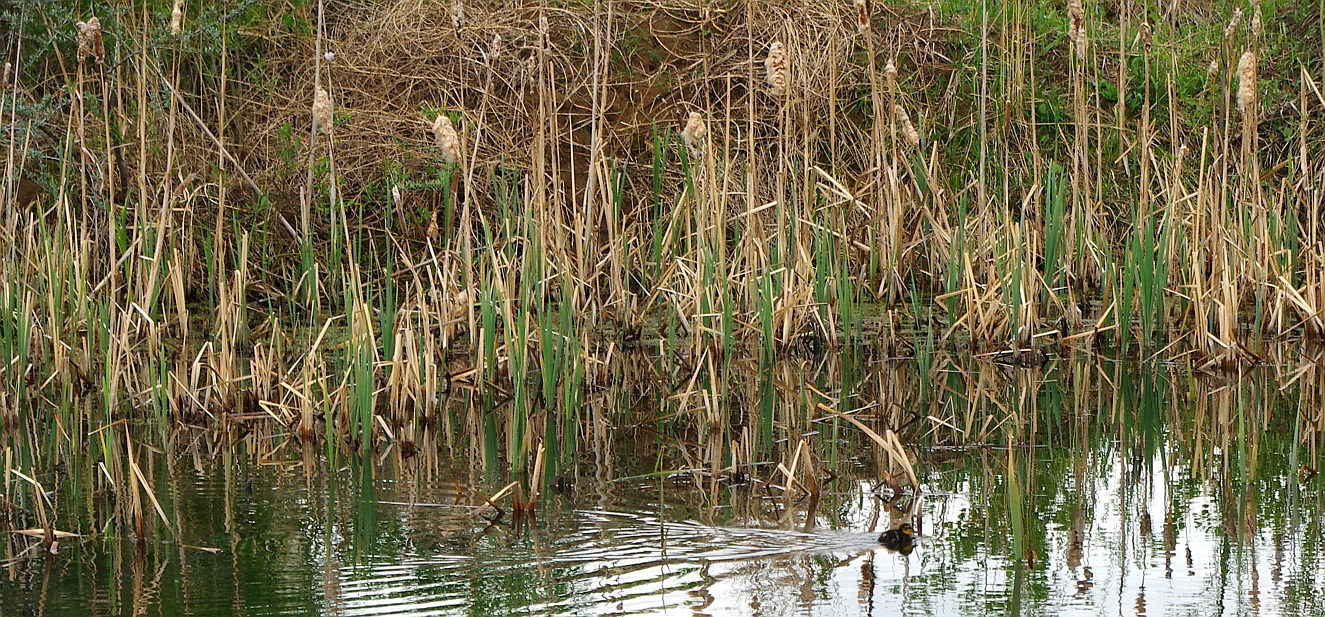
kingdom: Plantae
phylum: Tracheophyta
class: Liliopsida
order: Poales
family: Typhaceae
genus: Typha
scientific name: Typha latifolia
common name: Broadleaf cattail
